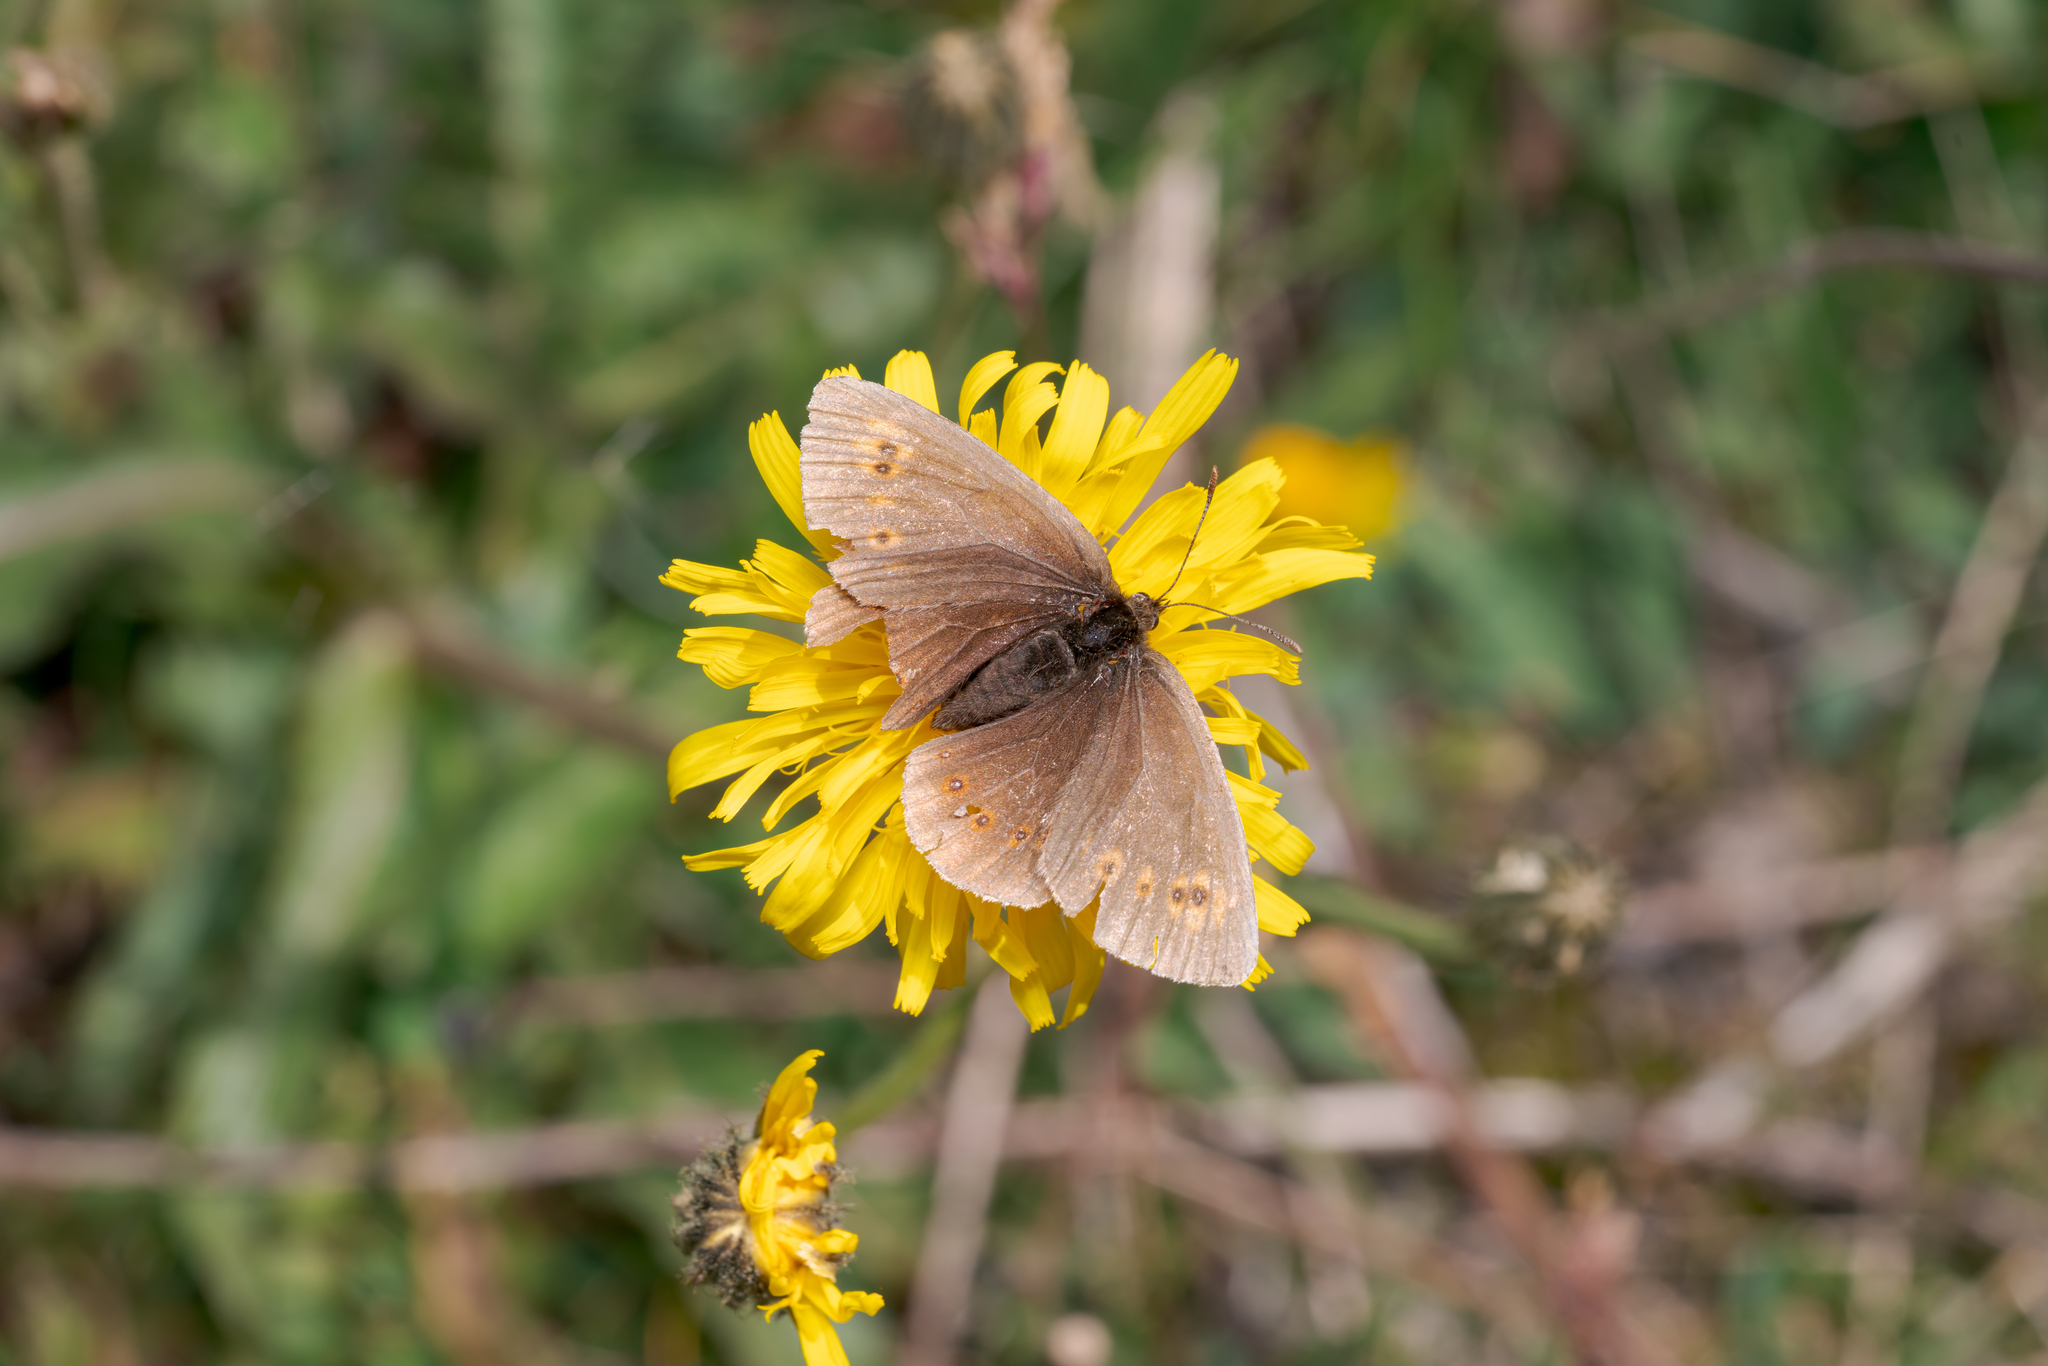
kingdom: Animalia
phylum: Arthropoda
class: Insecta
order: Lepidoptera
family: Nymphalidae
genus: Erebia
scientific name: Erebia alberganus
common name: Almond-eyed ringlet
